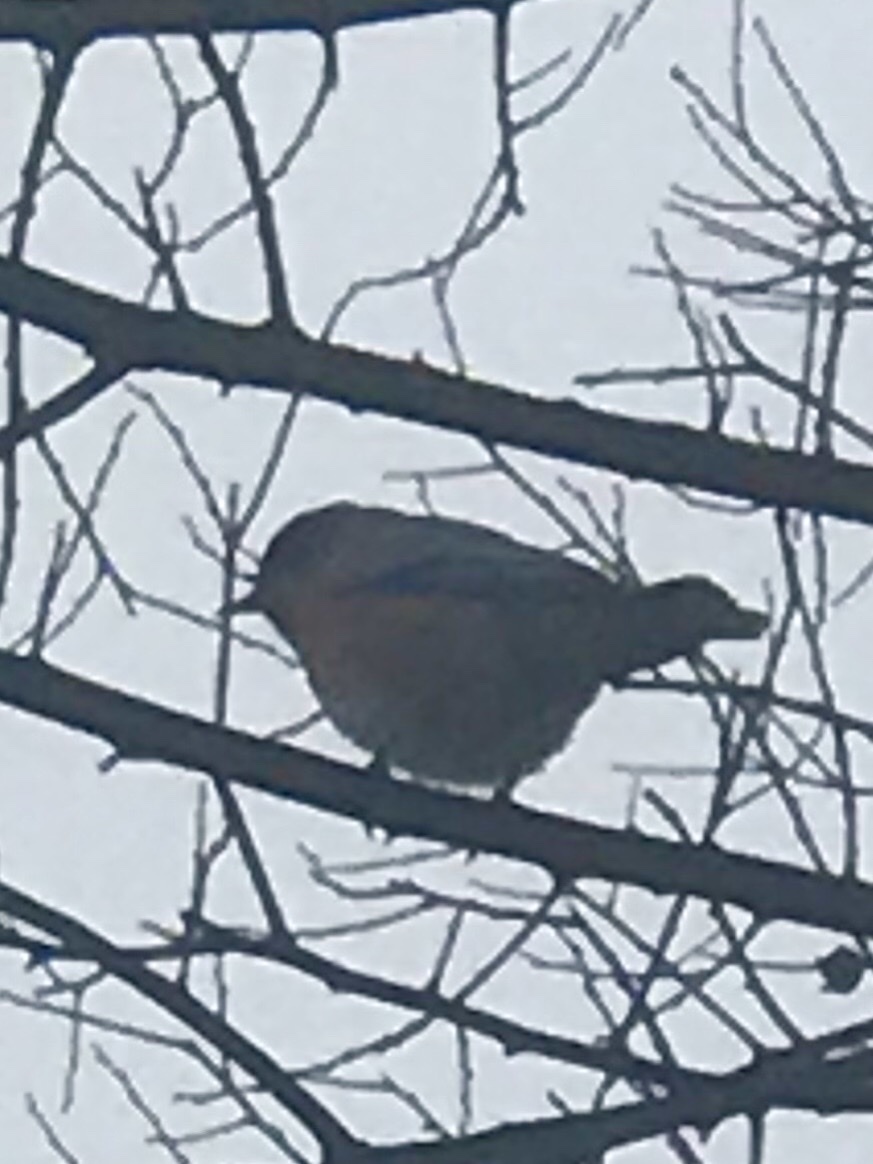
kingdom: Animalia
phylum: Chordata
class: Aves
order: Passeriformes
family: Turdidae
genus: Sialia
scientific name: Sialia sialis
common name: Eastern bluebird
